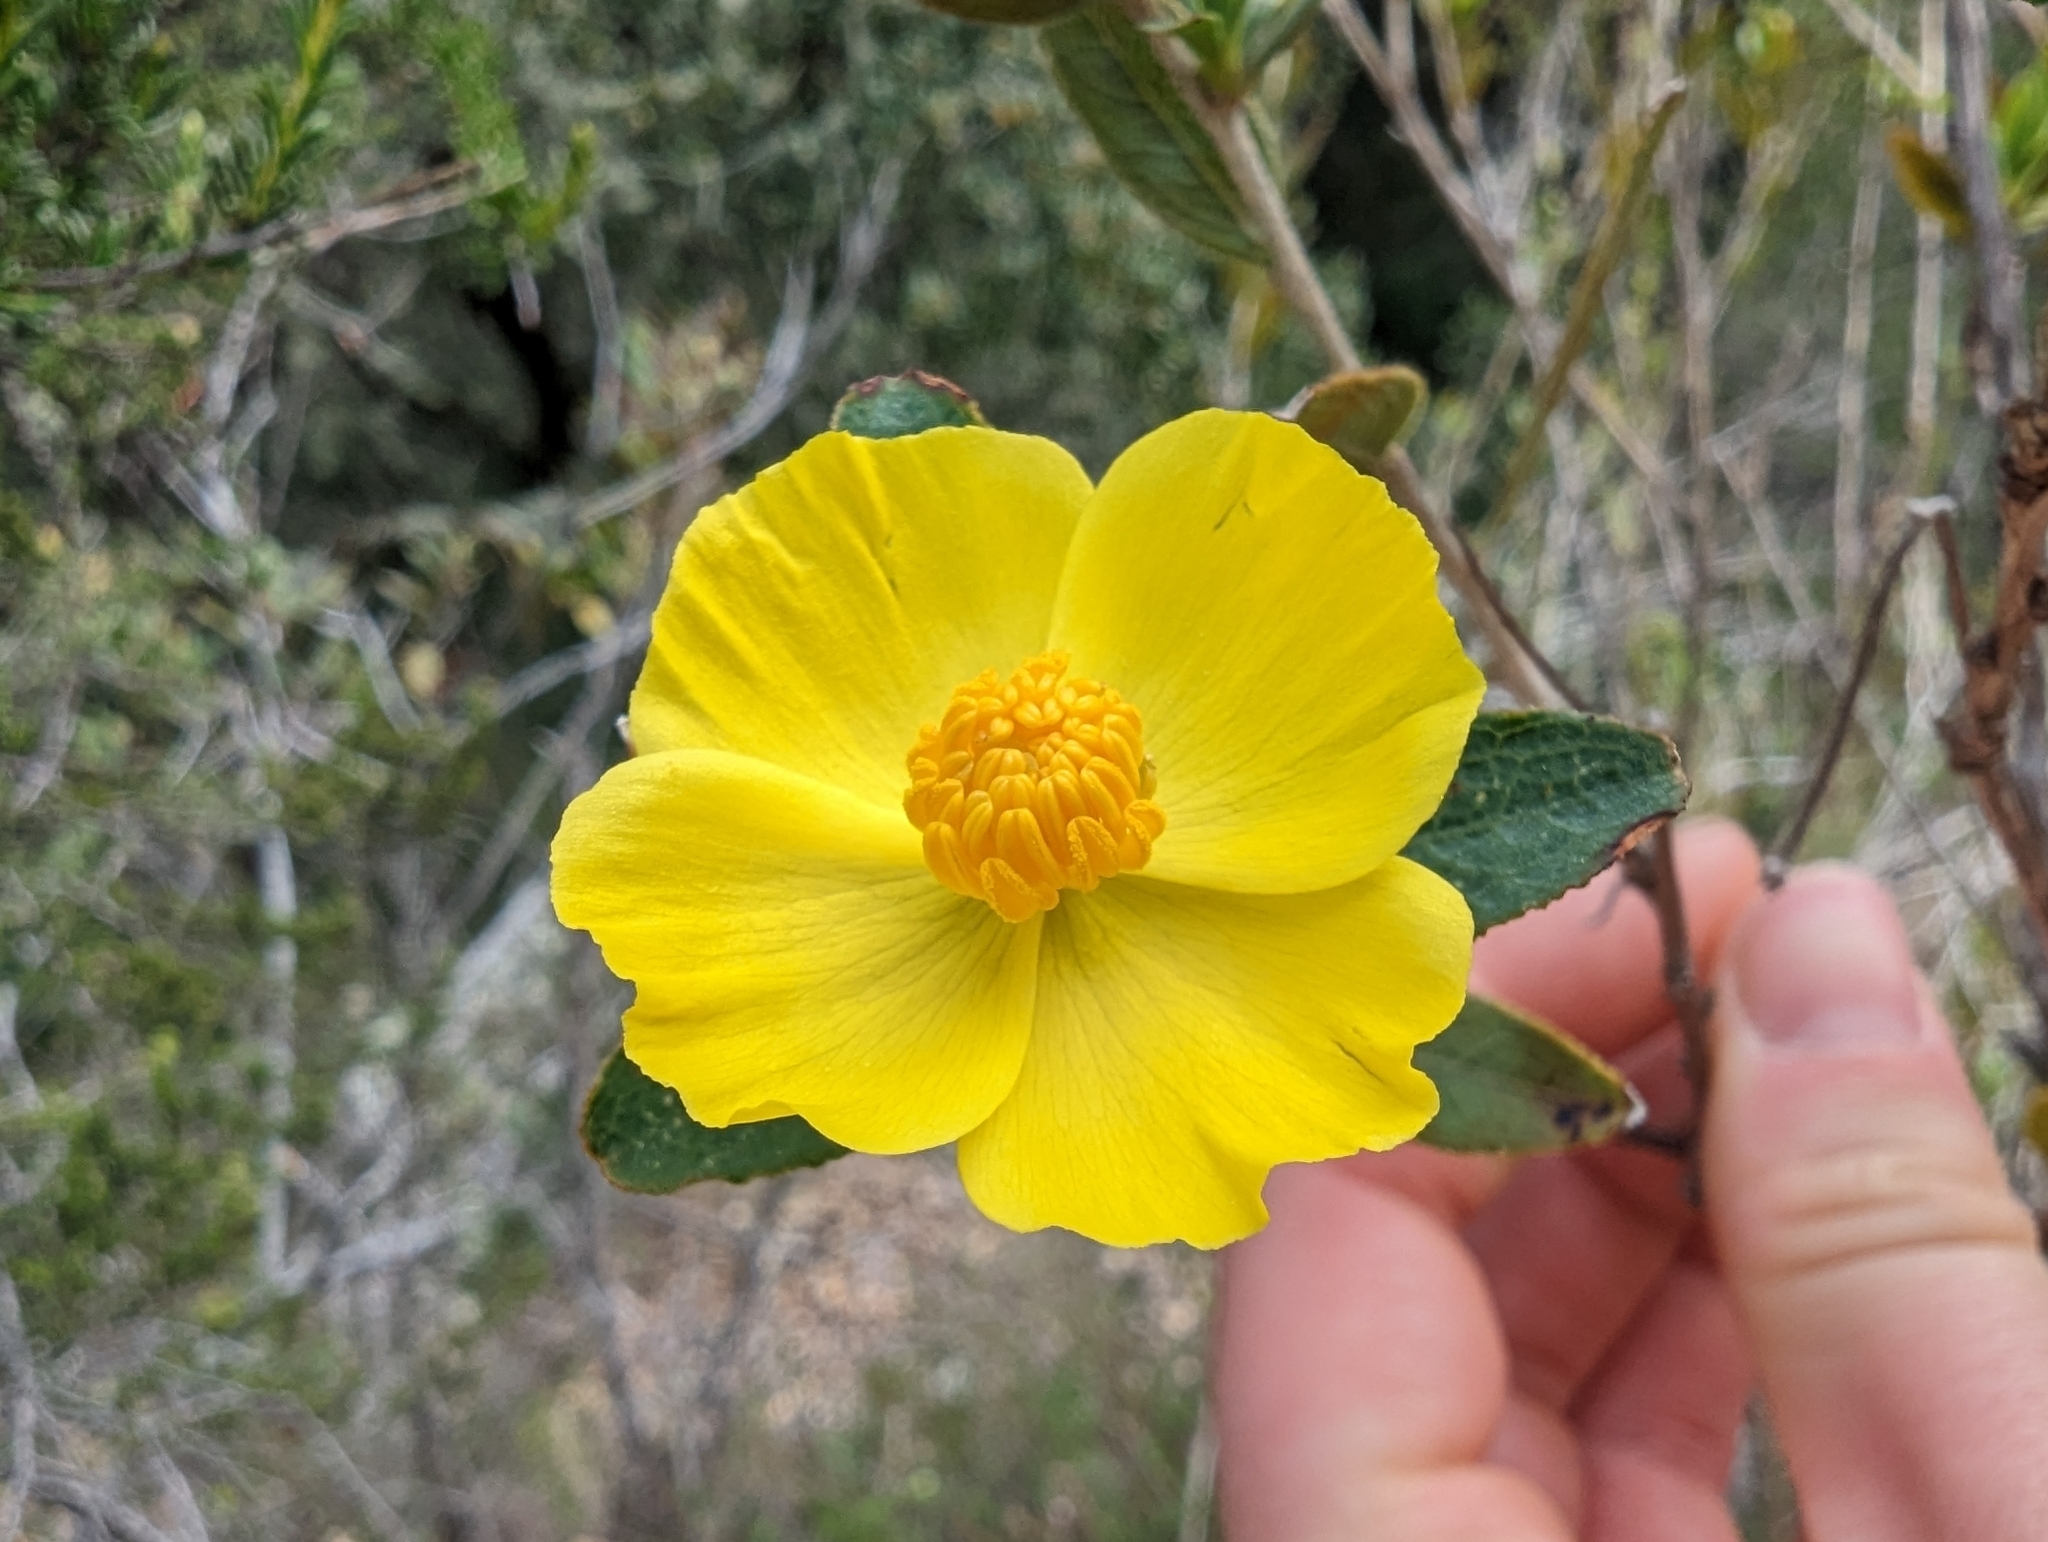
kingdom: Plantae
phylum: Tracheophyta
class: Magnoliopsida
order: Ranunculales
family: Papaveraceae
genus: Dendromecon
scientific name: Dendromecon rigida
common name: Tree poppy
